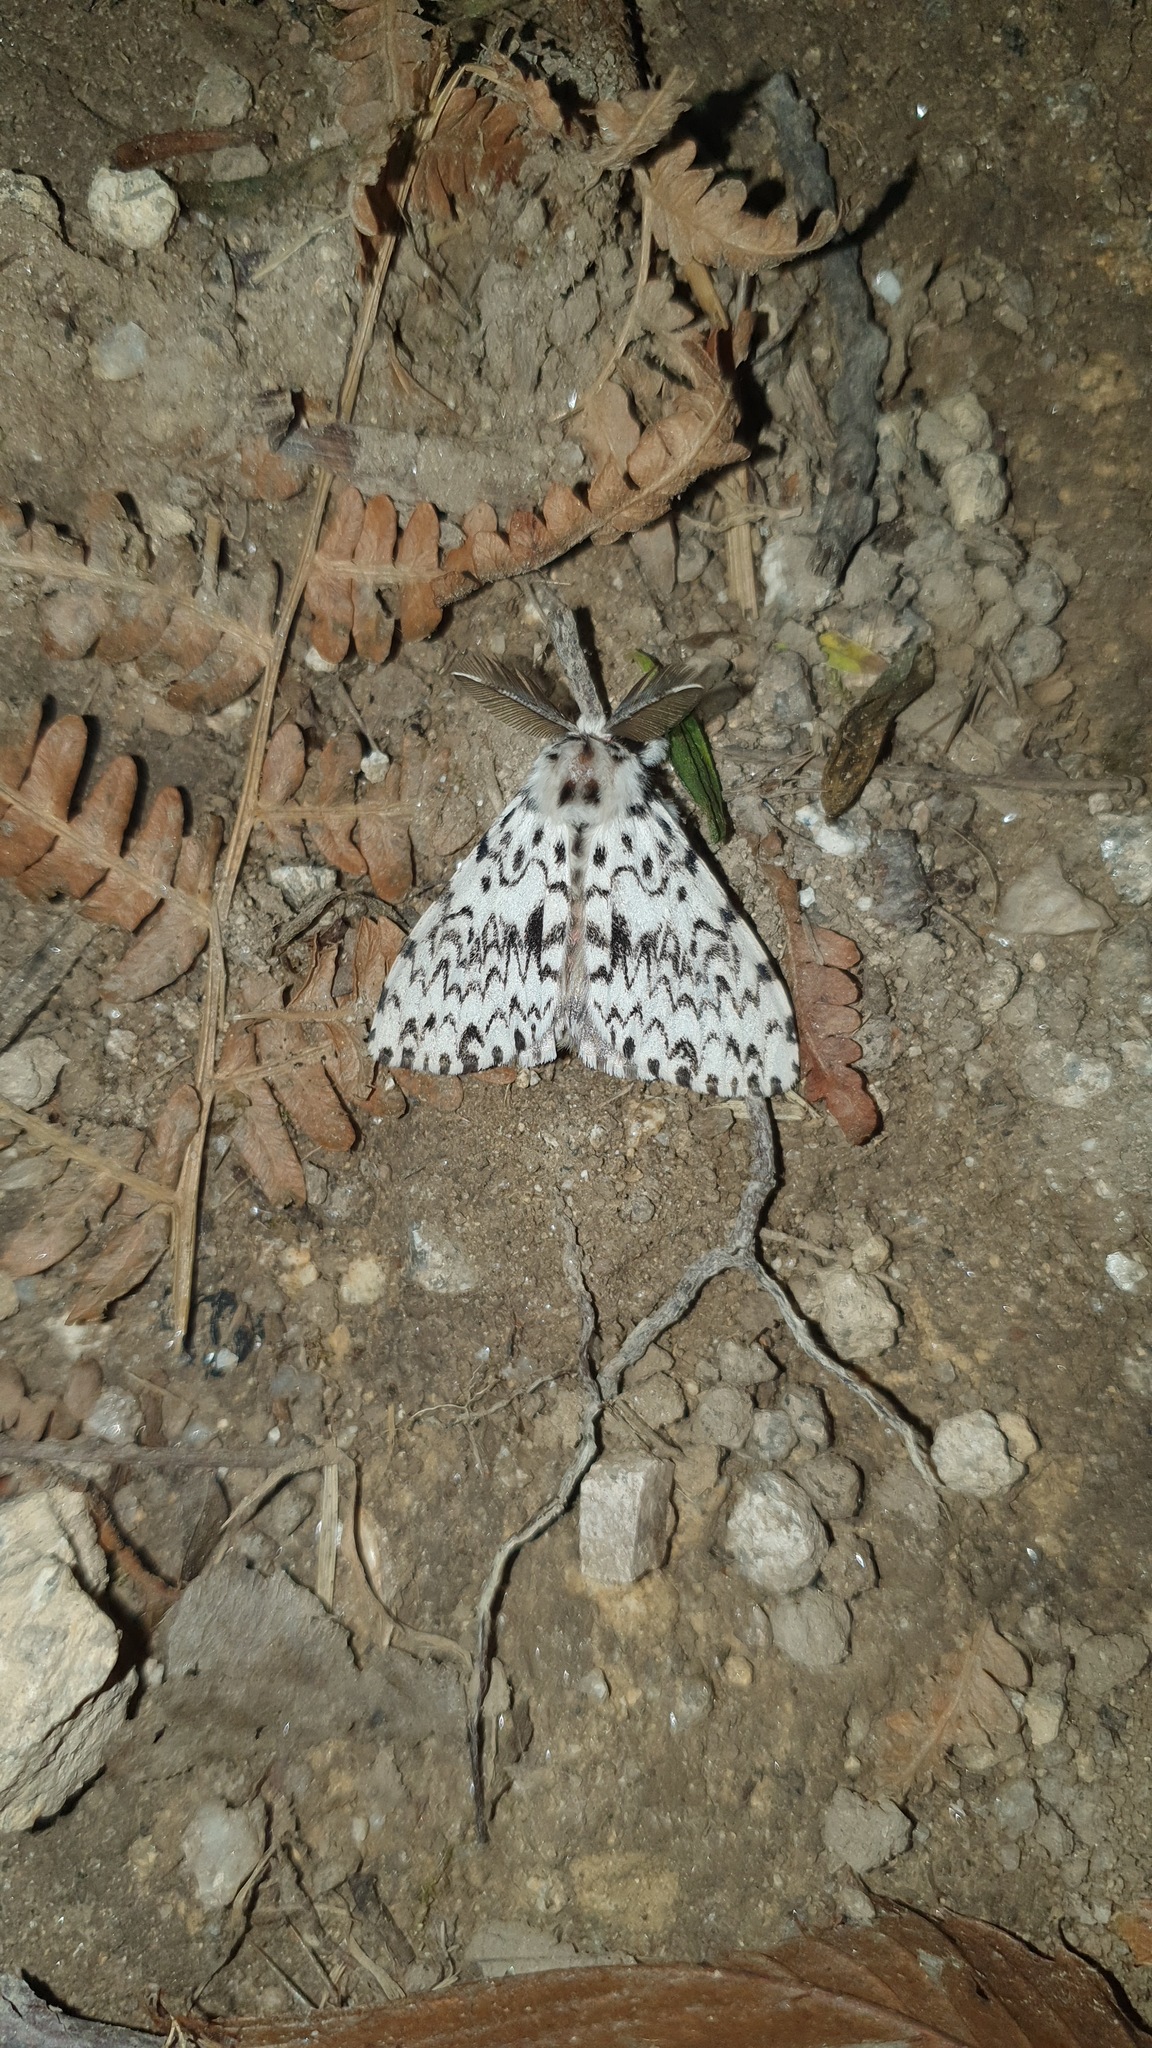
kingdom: Animalia
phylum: Arthropoda
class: Insecta
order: Lepidoptera
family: Erebidae
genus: Lymantria
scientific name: Lymantria monacha
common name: Black arches
